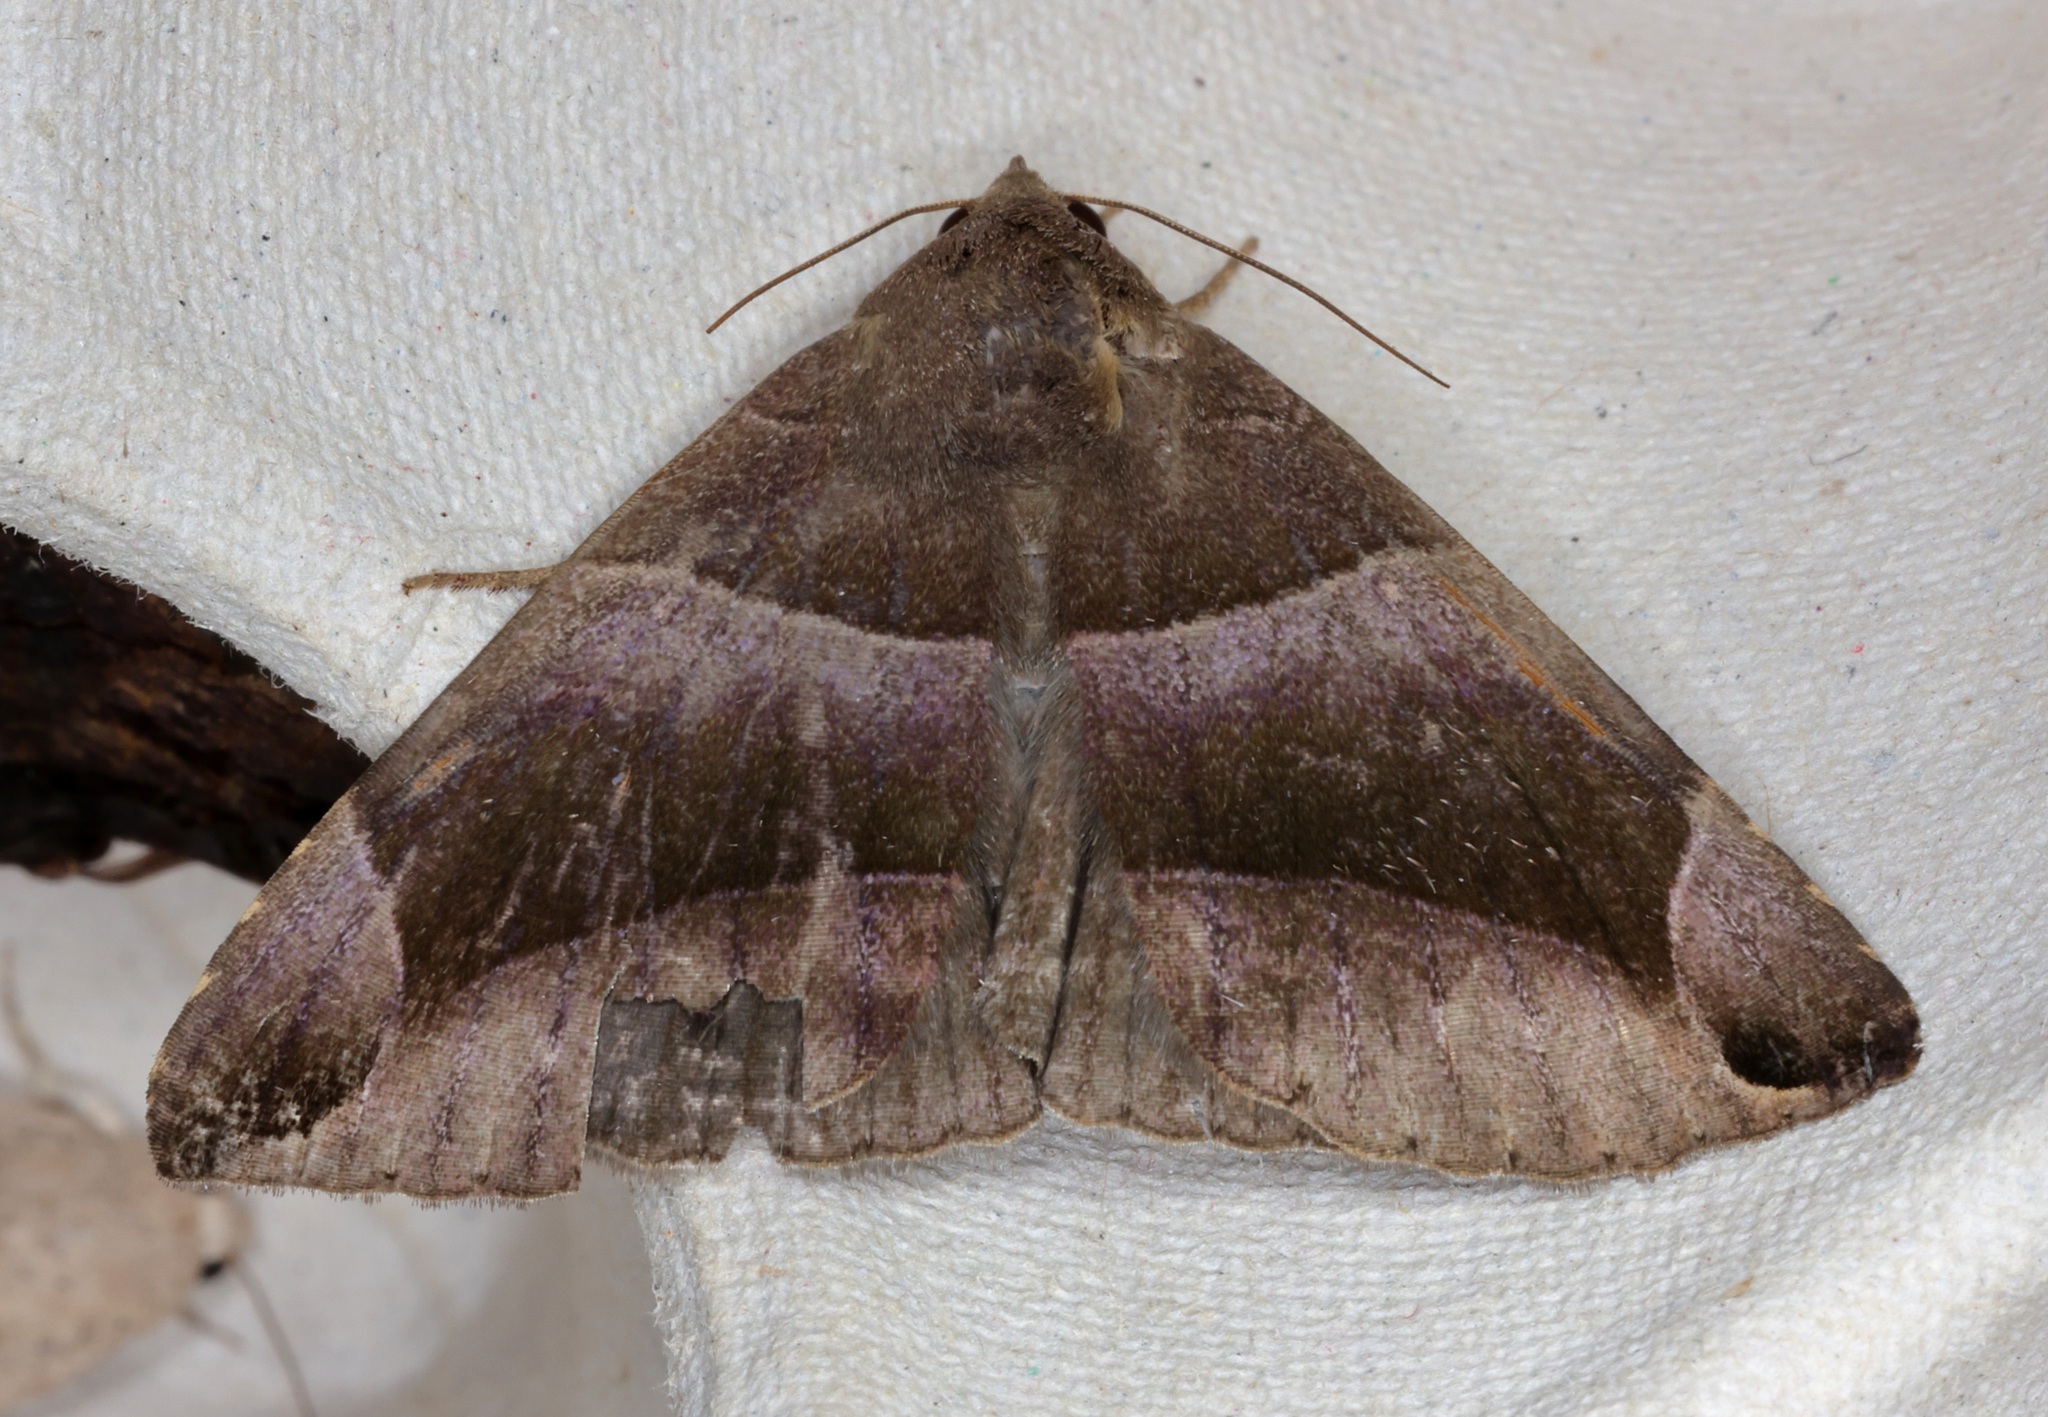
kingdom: Animalia
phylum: Arthropoda
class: Insecta
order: Lepidoptera
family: Erebidae
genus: Bastilla
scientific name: Bastilla maturescens
